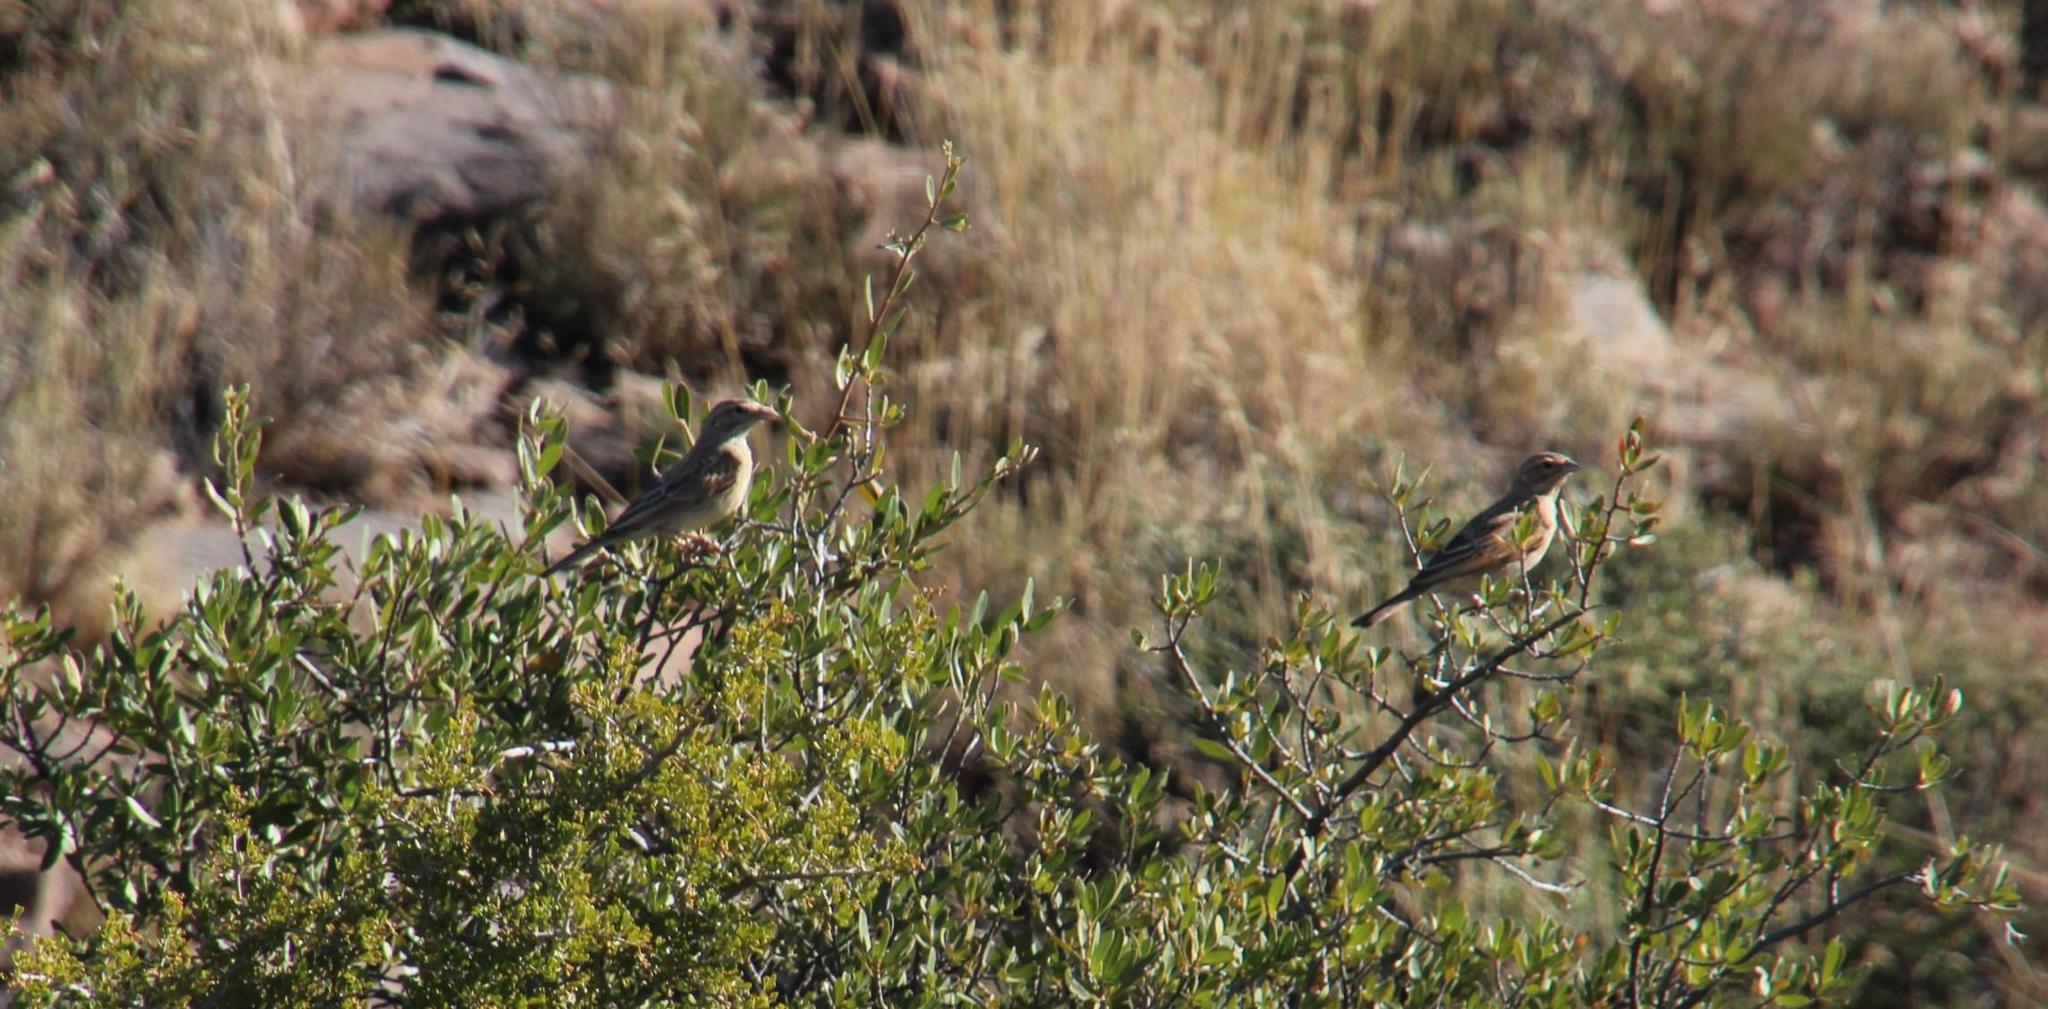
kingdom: Animalia
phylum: Chordata
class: Aves
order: Passeriformes
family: Emberizidae
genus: Emberiza
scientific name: Emberiza impetuani
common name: Lark-like bunting
